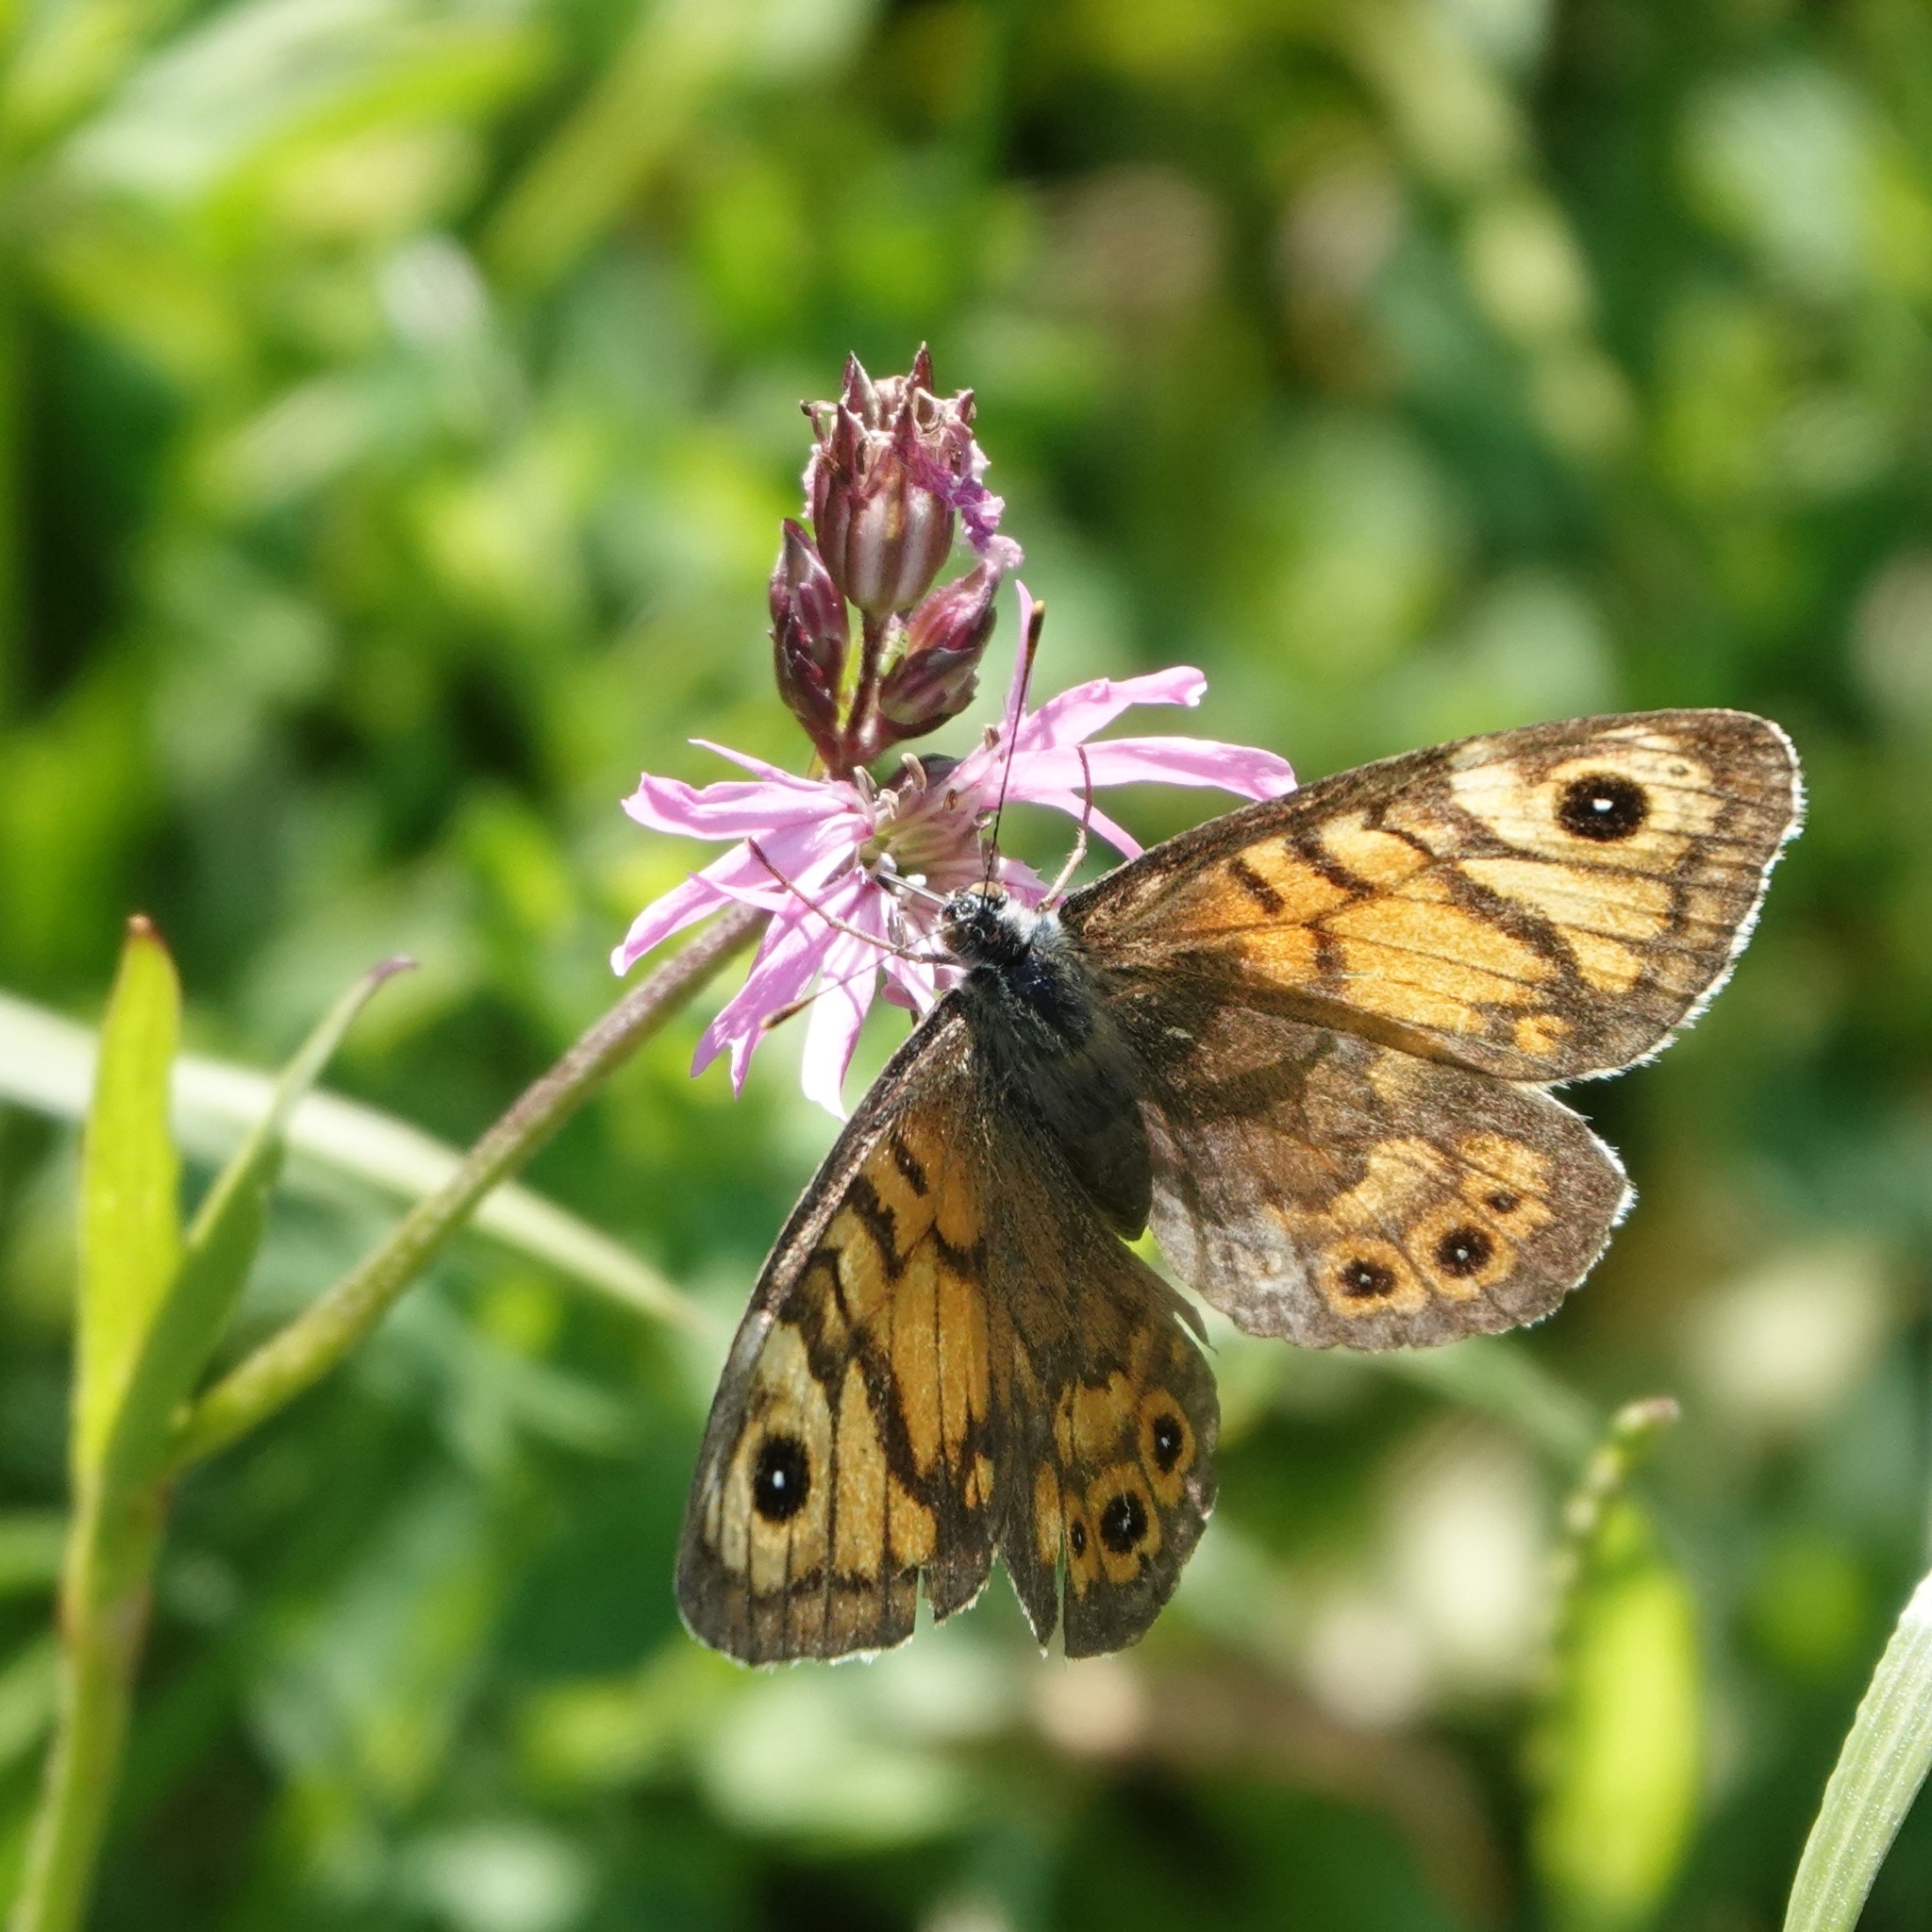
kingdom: Animalia
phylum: Arthropoda
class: Insecta
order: Lepidoptera
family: Nymphalidae
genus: Pararge
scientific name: Pararge Lasiommata megera
